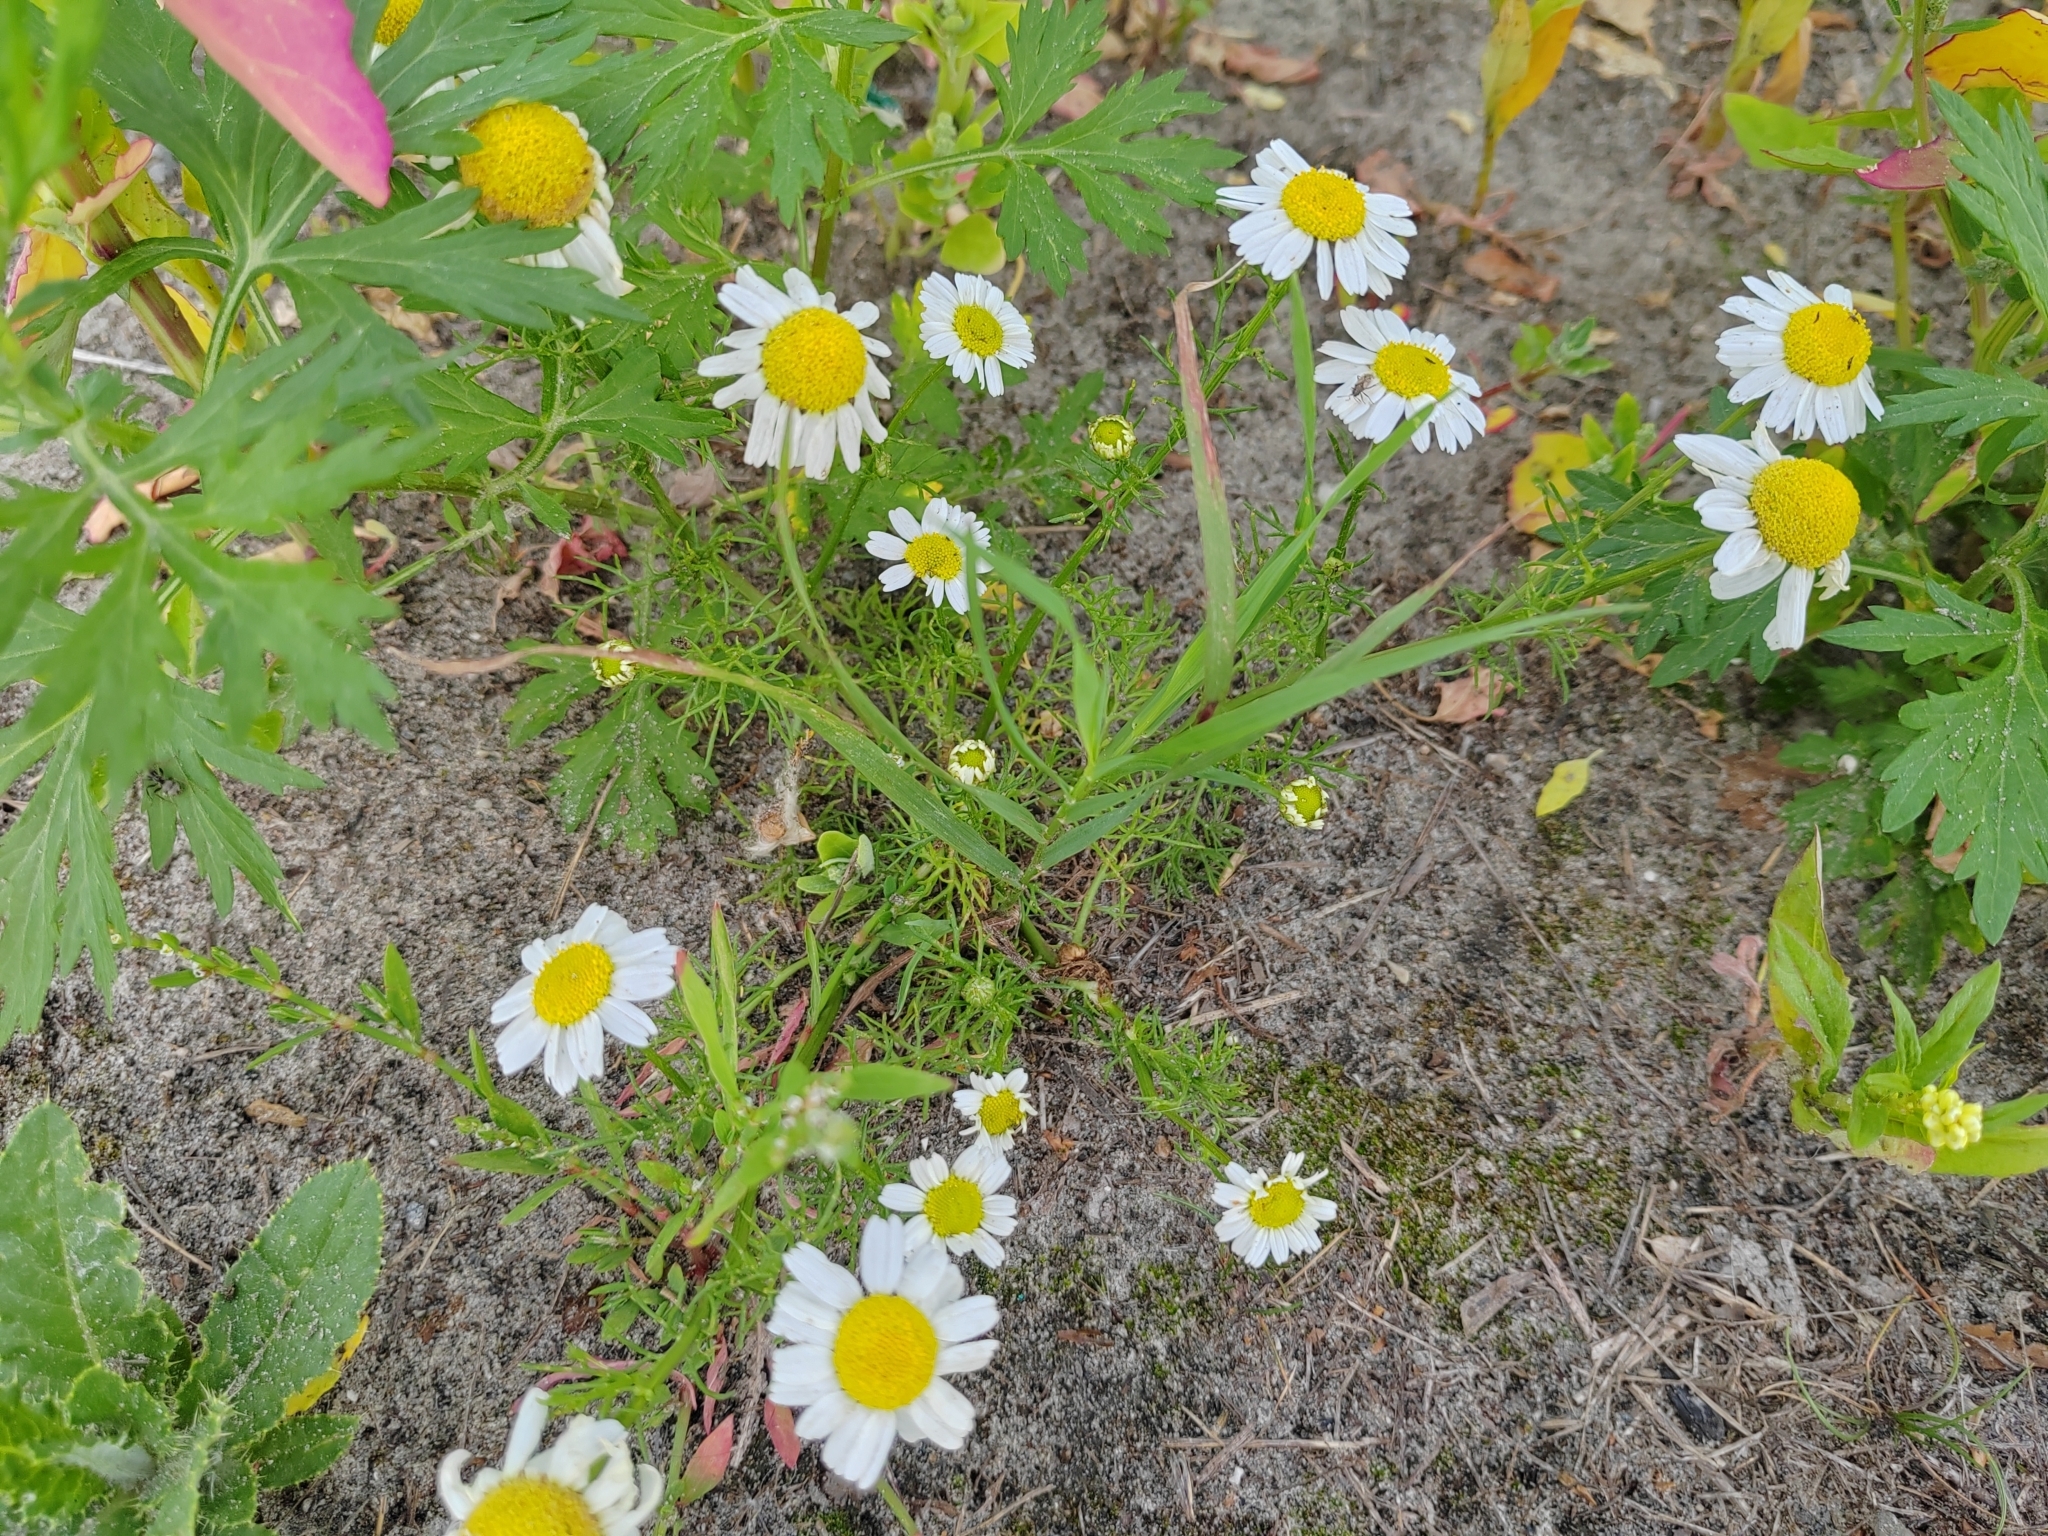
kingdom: Plantae
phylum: Tracheophyta
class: Magnoliopsida
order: Asterales
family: Asteraceae
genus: Tripleurospermum
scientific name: Tripleurospermum inodorum
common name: Scentless mayweed
